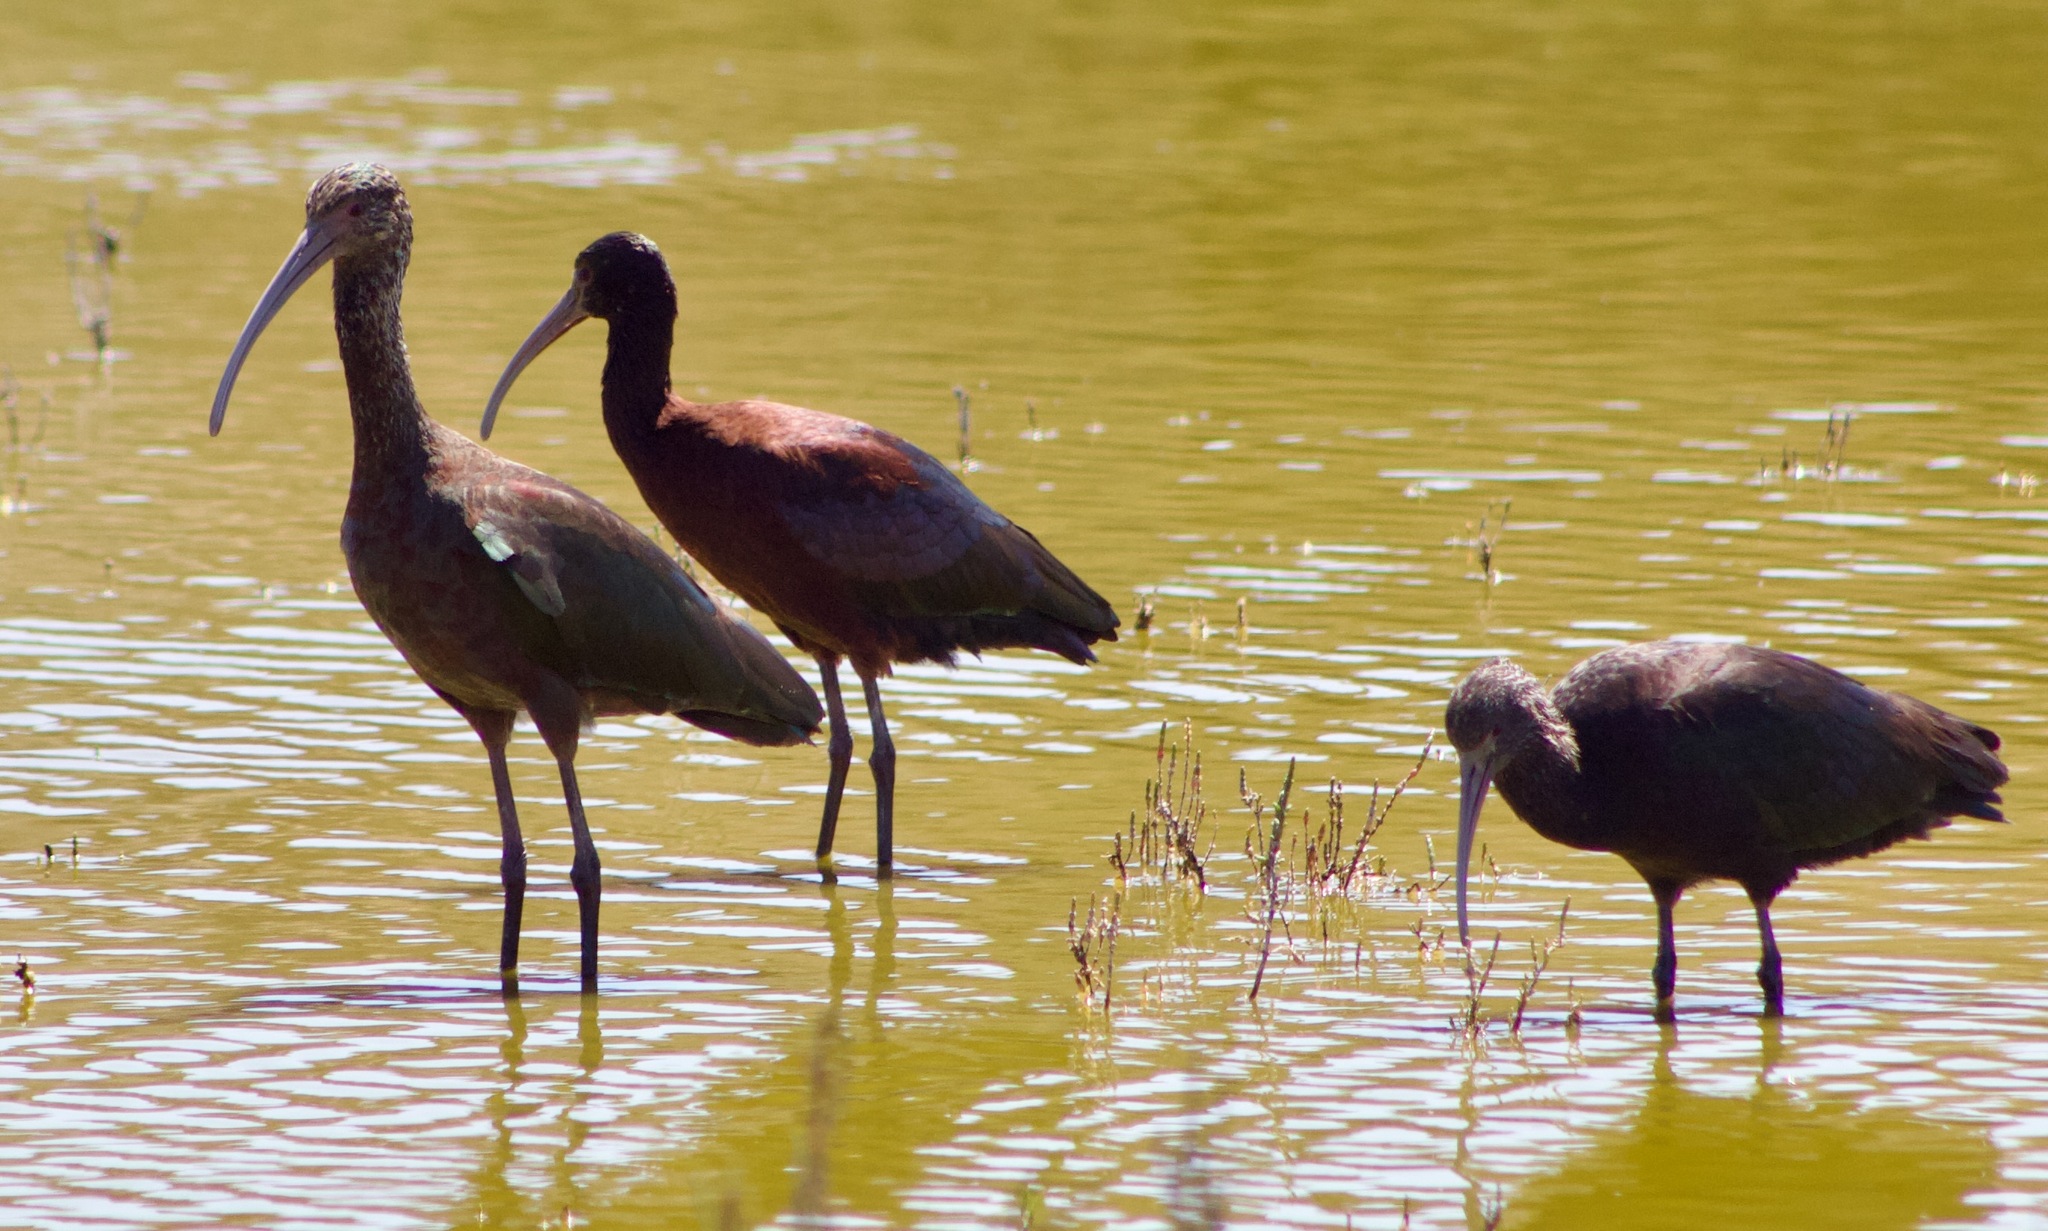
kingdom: Animalia
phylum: Chordata
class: Aves
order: Pelecaniformes
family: Threskiornithidae
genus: Plegadis
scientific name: Plegadis chihi
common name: White-faced ibis
